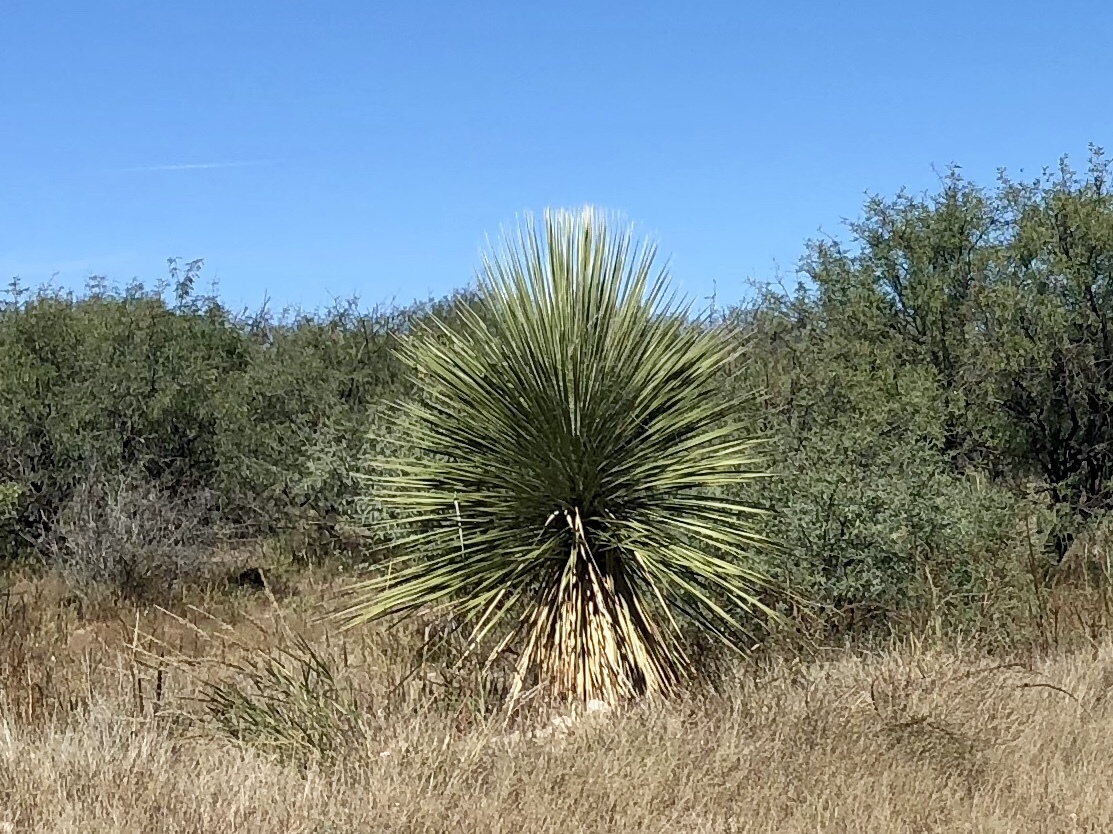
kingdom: Plantae
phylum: Tracheophyta
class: Liliopsida
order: Asparagales
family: Asparagaceae
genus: Yucca
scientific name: Yucca elata
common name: Palmella
